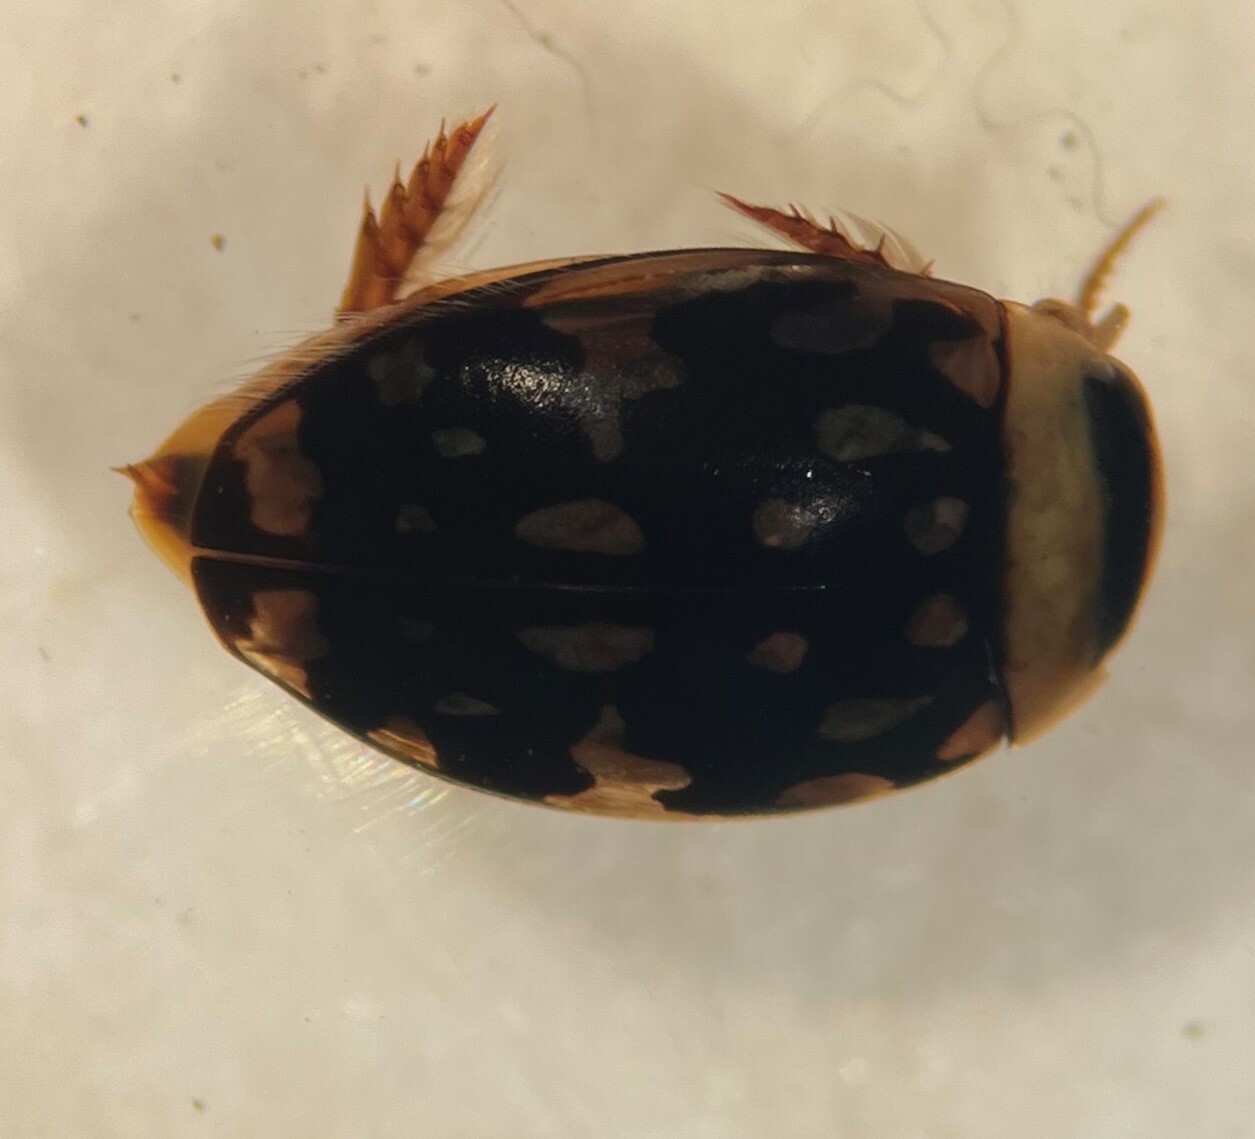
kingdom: Animalia
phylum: Arthropoda
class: Insecta
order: Coleoptera
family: Dytiscidae
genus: Laccophilus
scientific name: Laccophilus pictus
